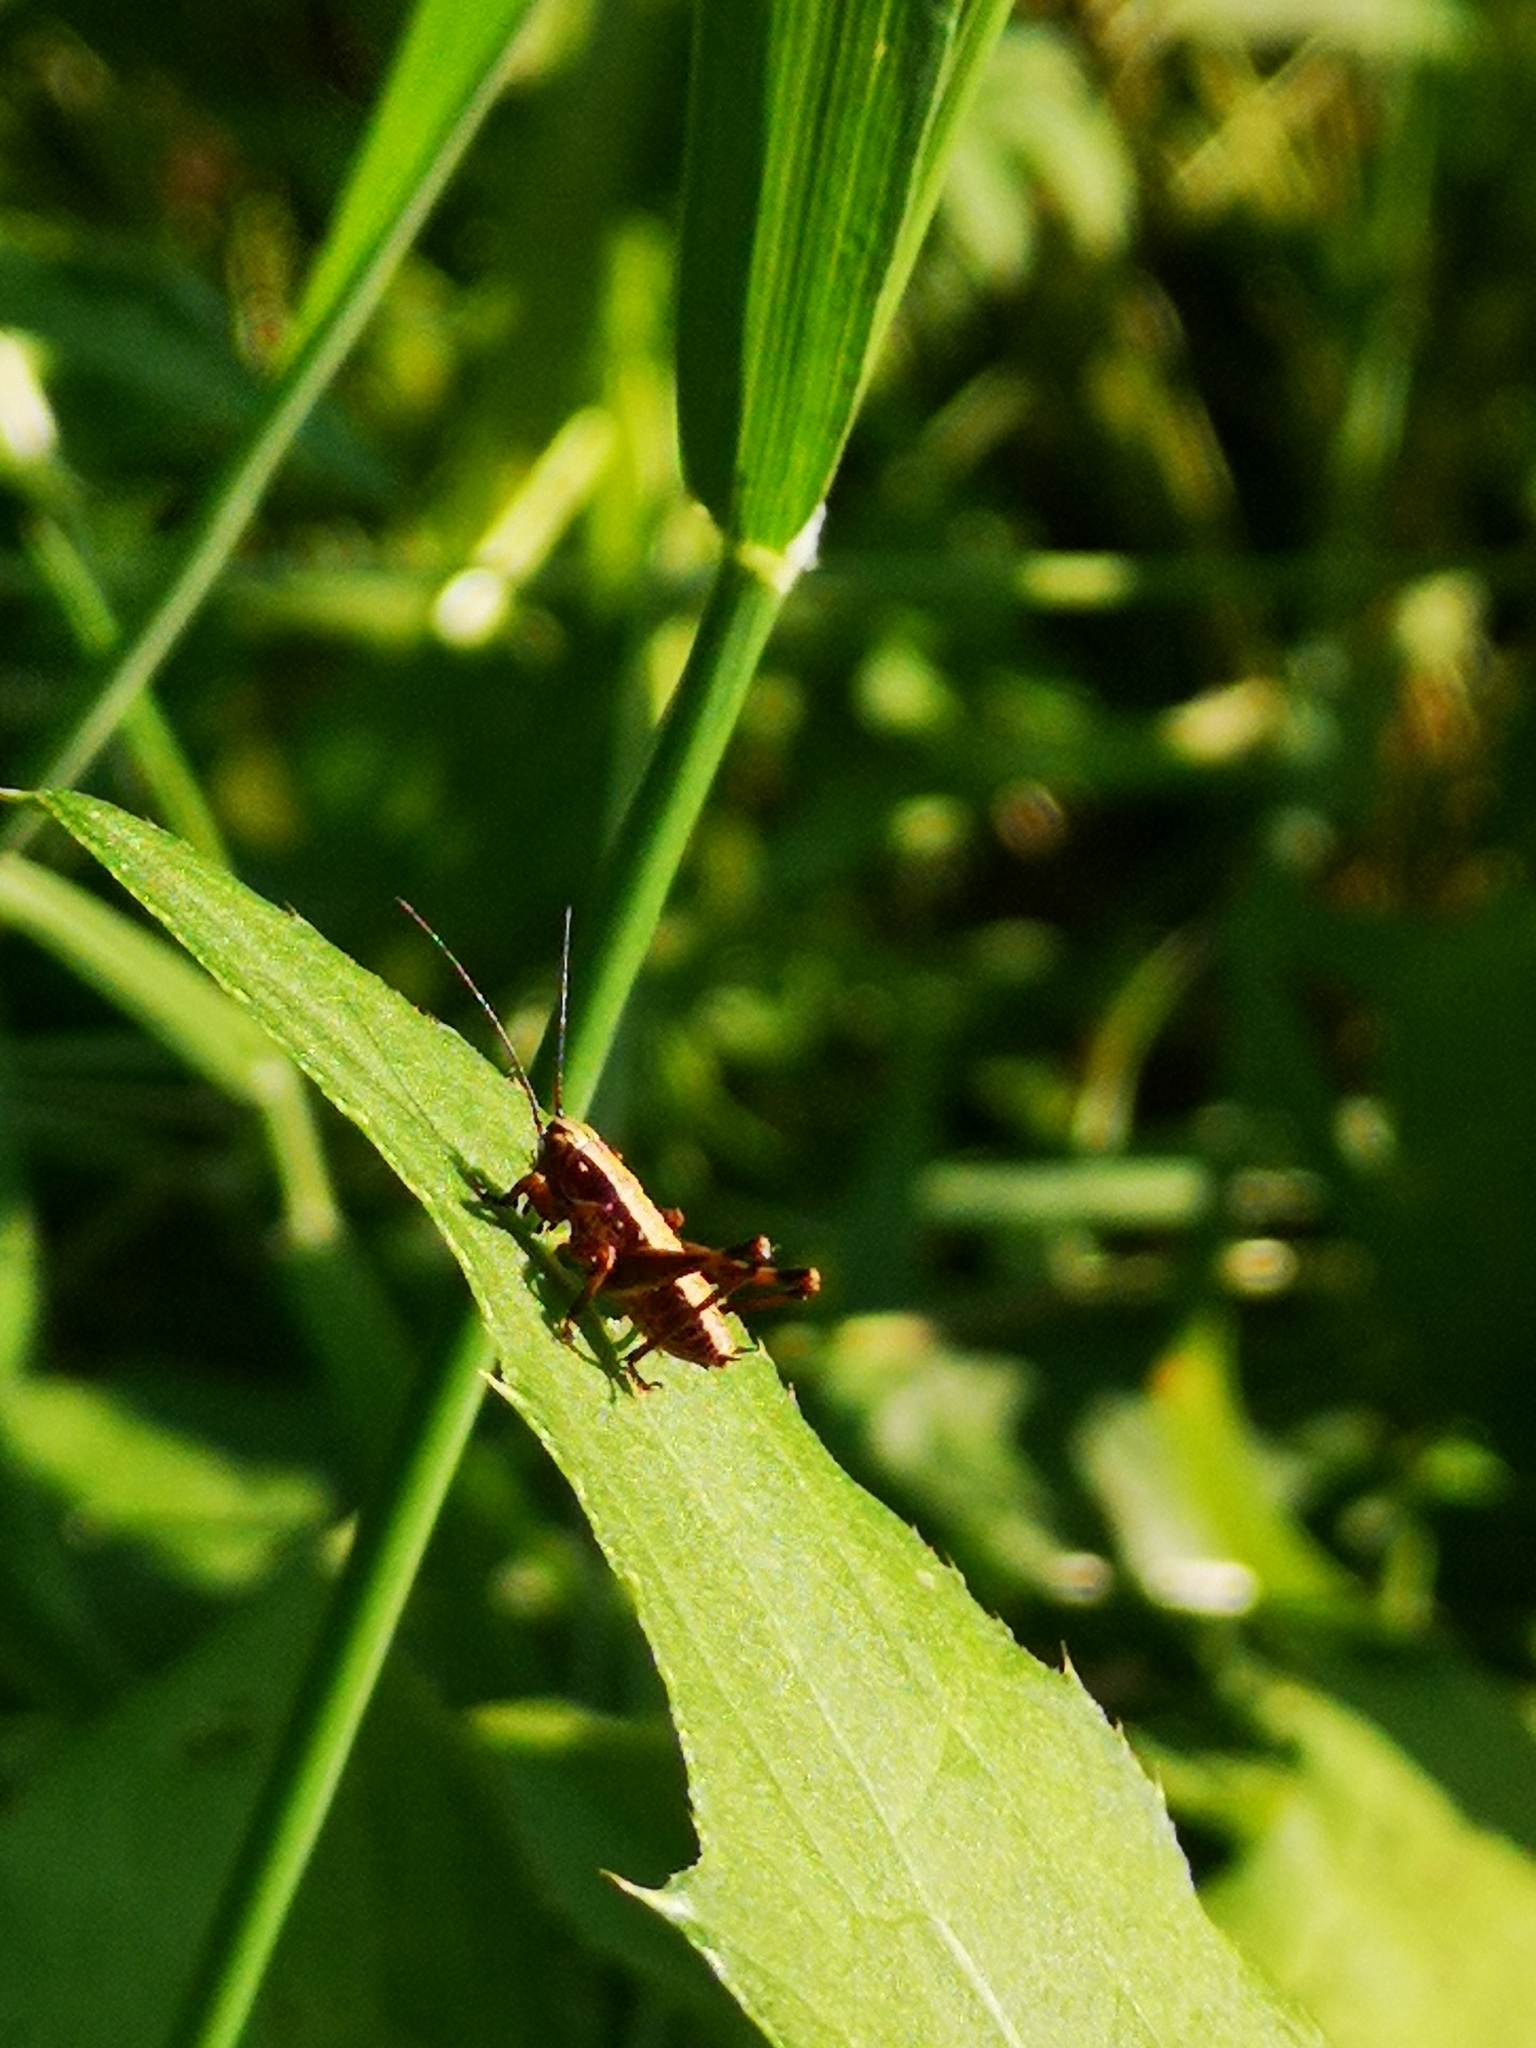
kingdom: Animalia
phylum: Arthropoda
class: Insecta
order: Orthoptera
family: Tettigoniidae
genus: Pholidoptera
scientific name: Pholidoptera griseoaptera
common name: Dark bush-cricket
